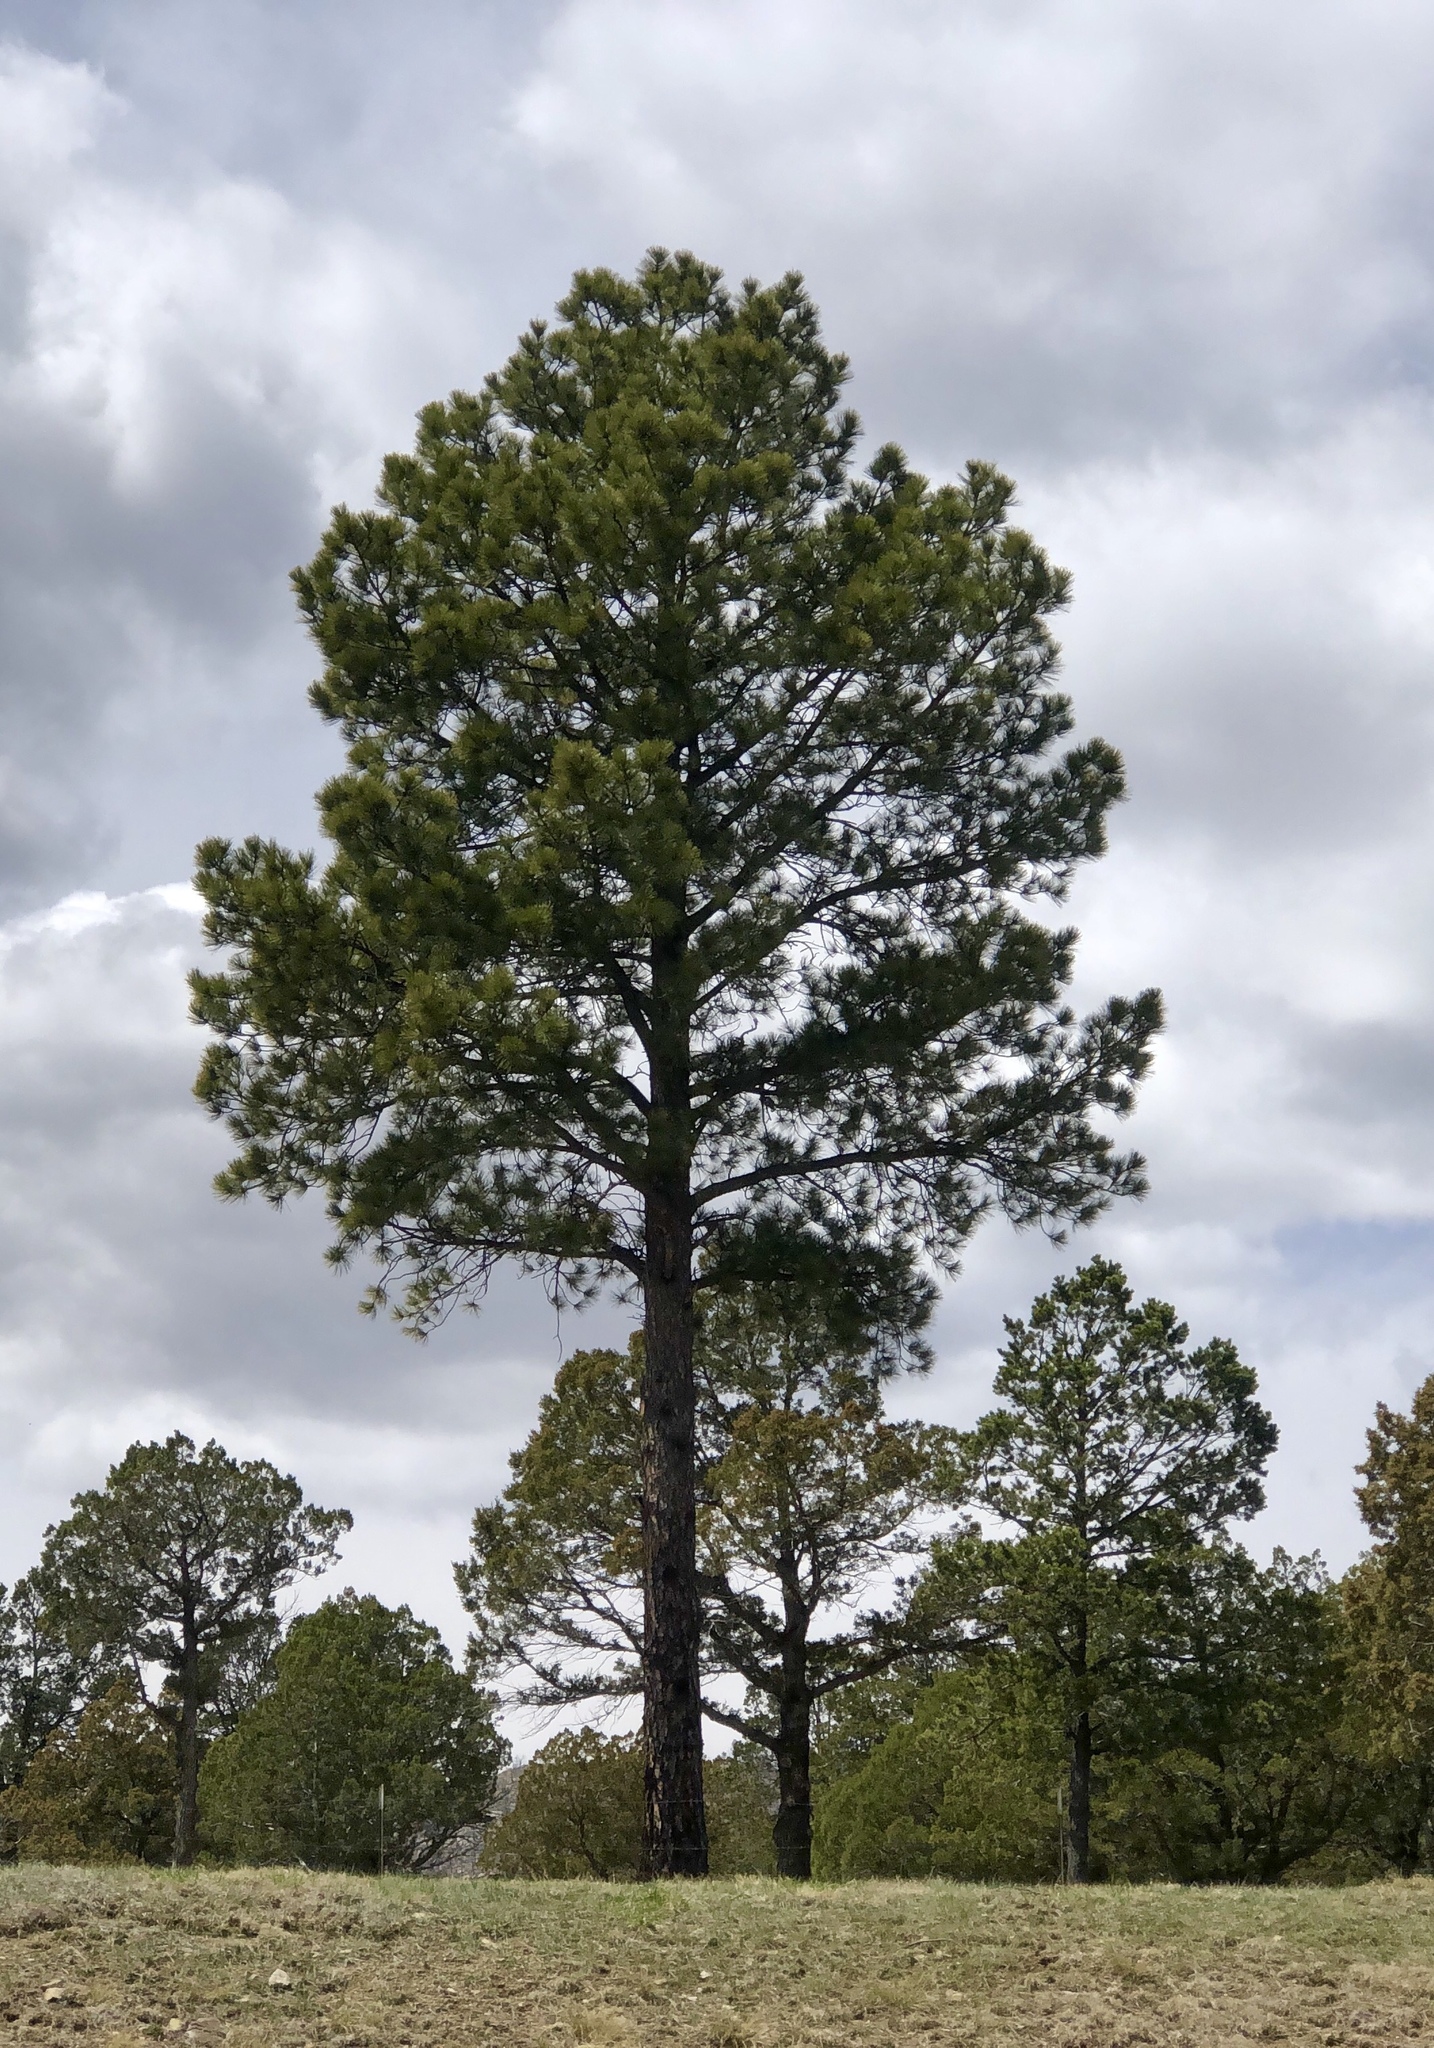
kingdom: Plantae
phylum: Tracheophyta
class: Pinopsida
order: Pinales
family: Pinaceae
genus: Pinus
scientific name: Pinus ponderosa
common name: Western yellow-pine
